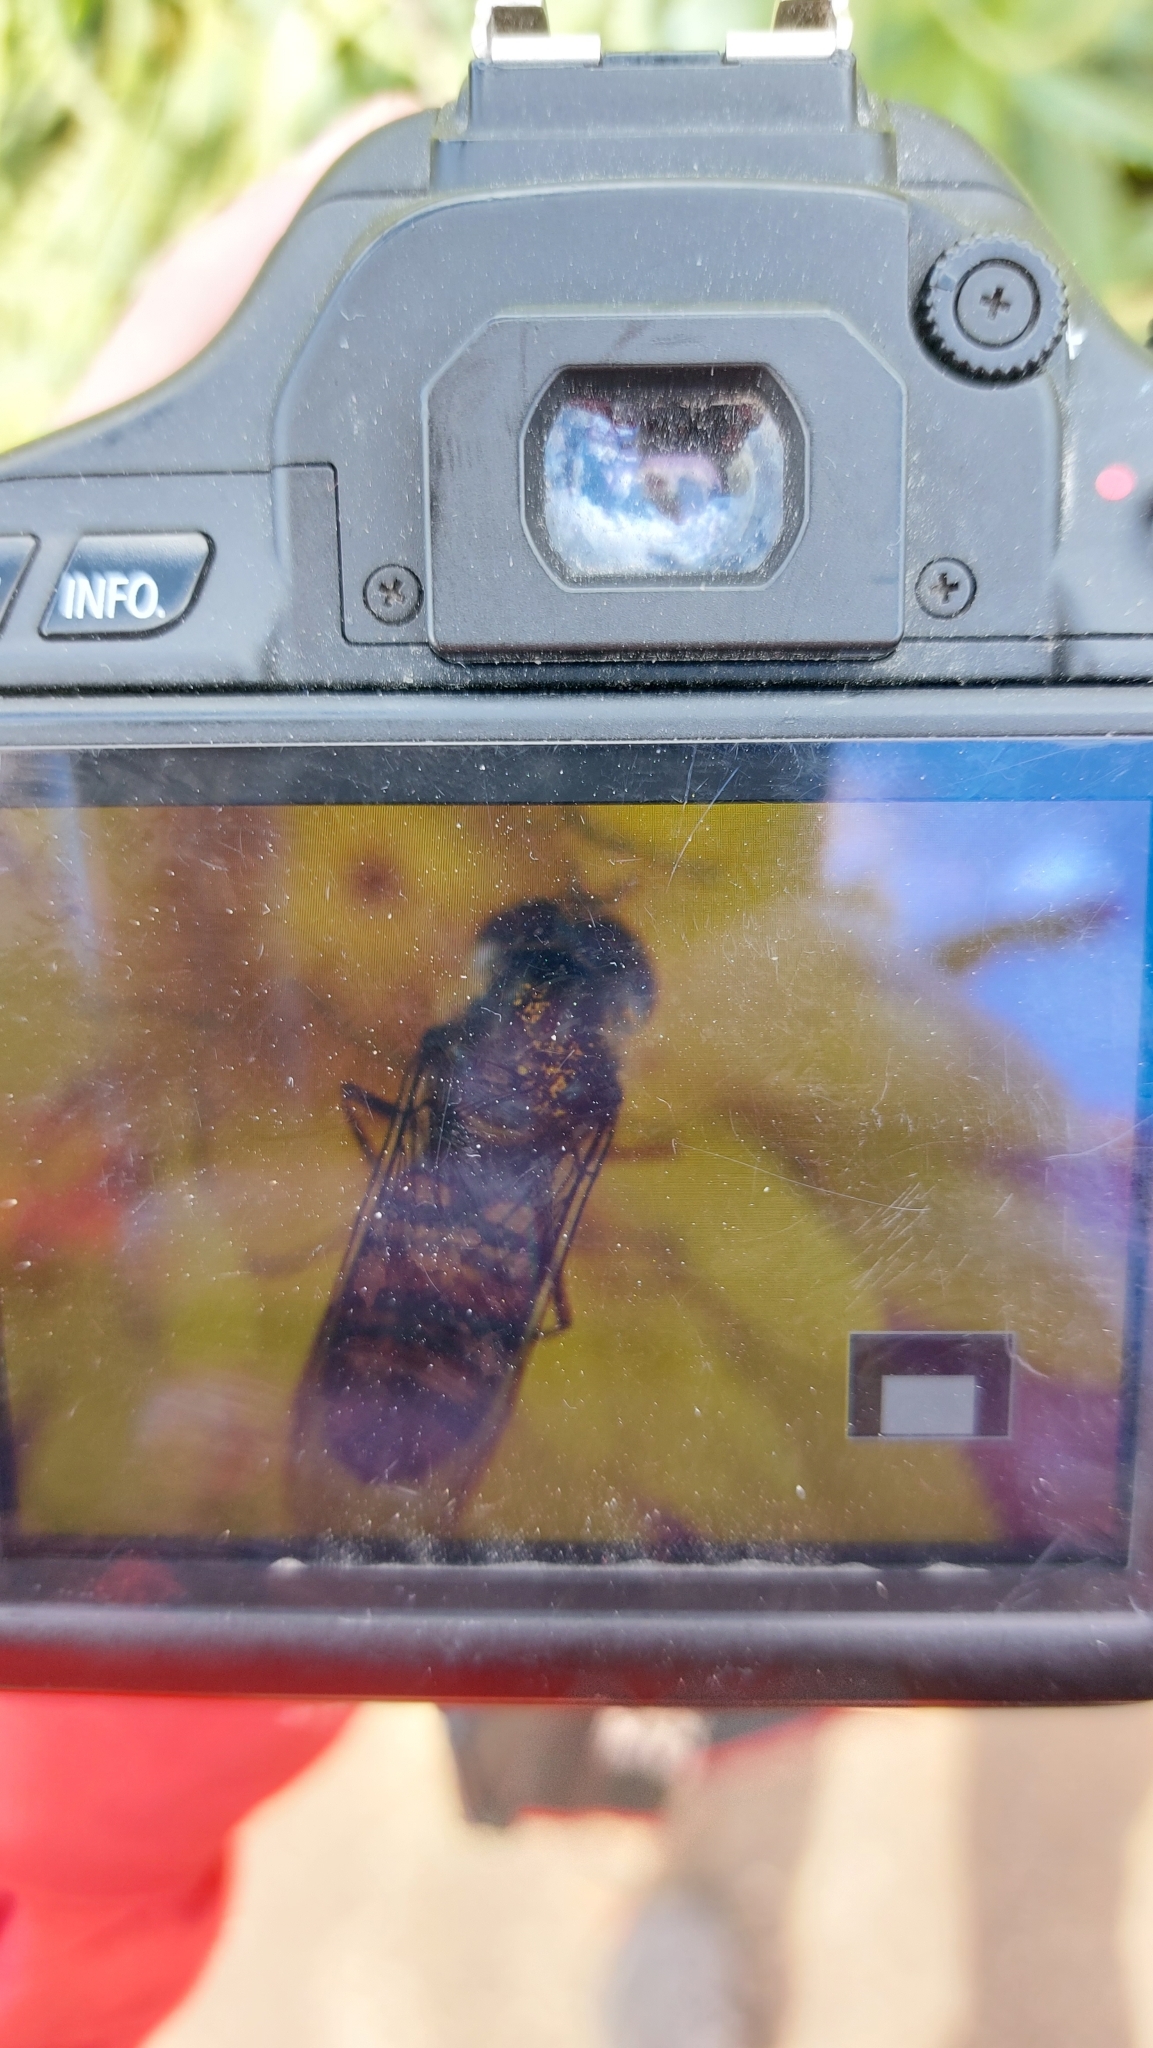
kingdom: Animalia
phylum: Arthropoda
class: Insecta
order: Diptera
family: Syrphidae
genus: Episyrphus
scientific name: Episyrphus balteatus
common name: Marmalade hoverfly
